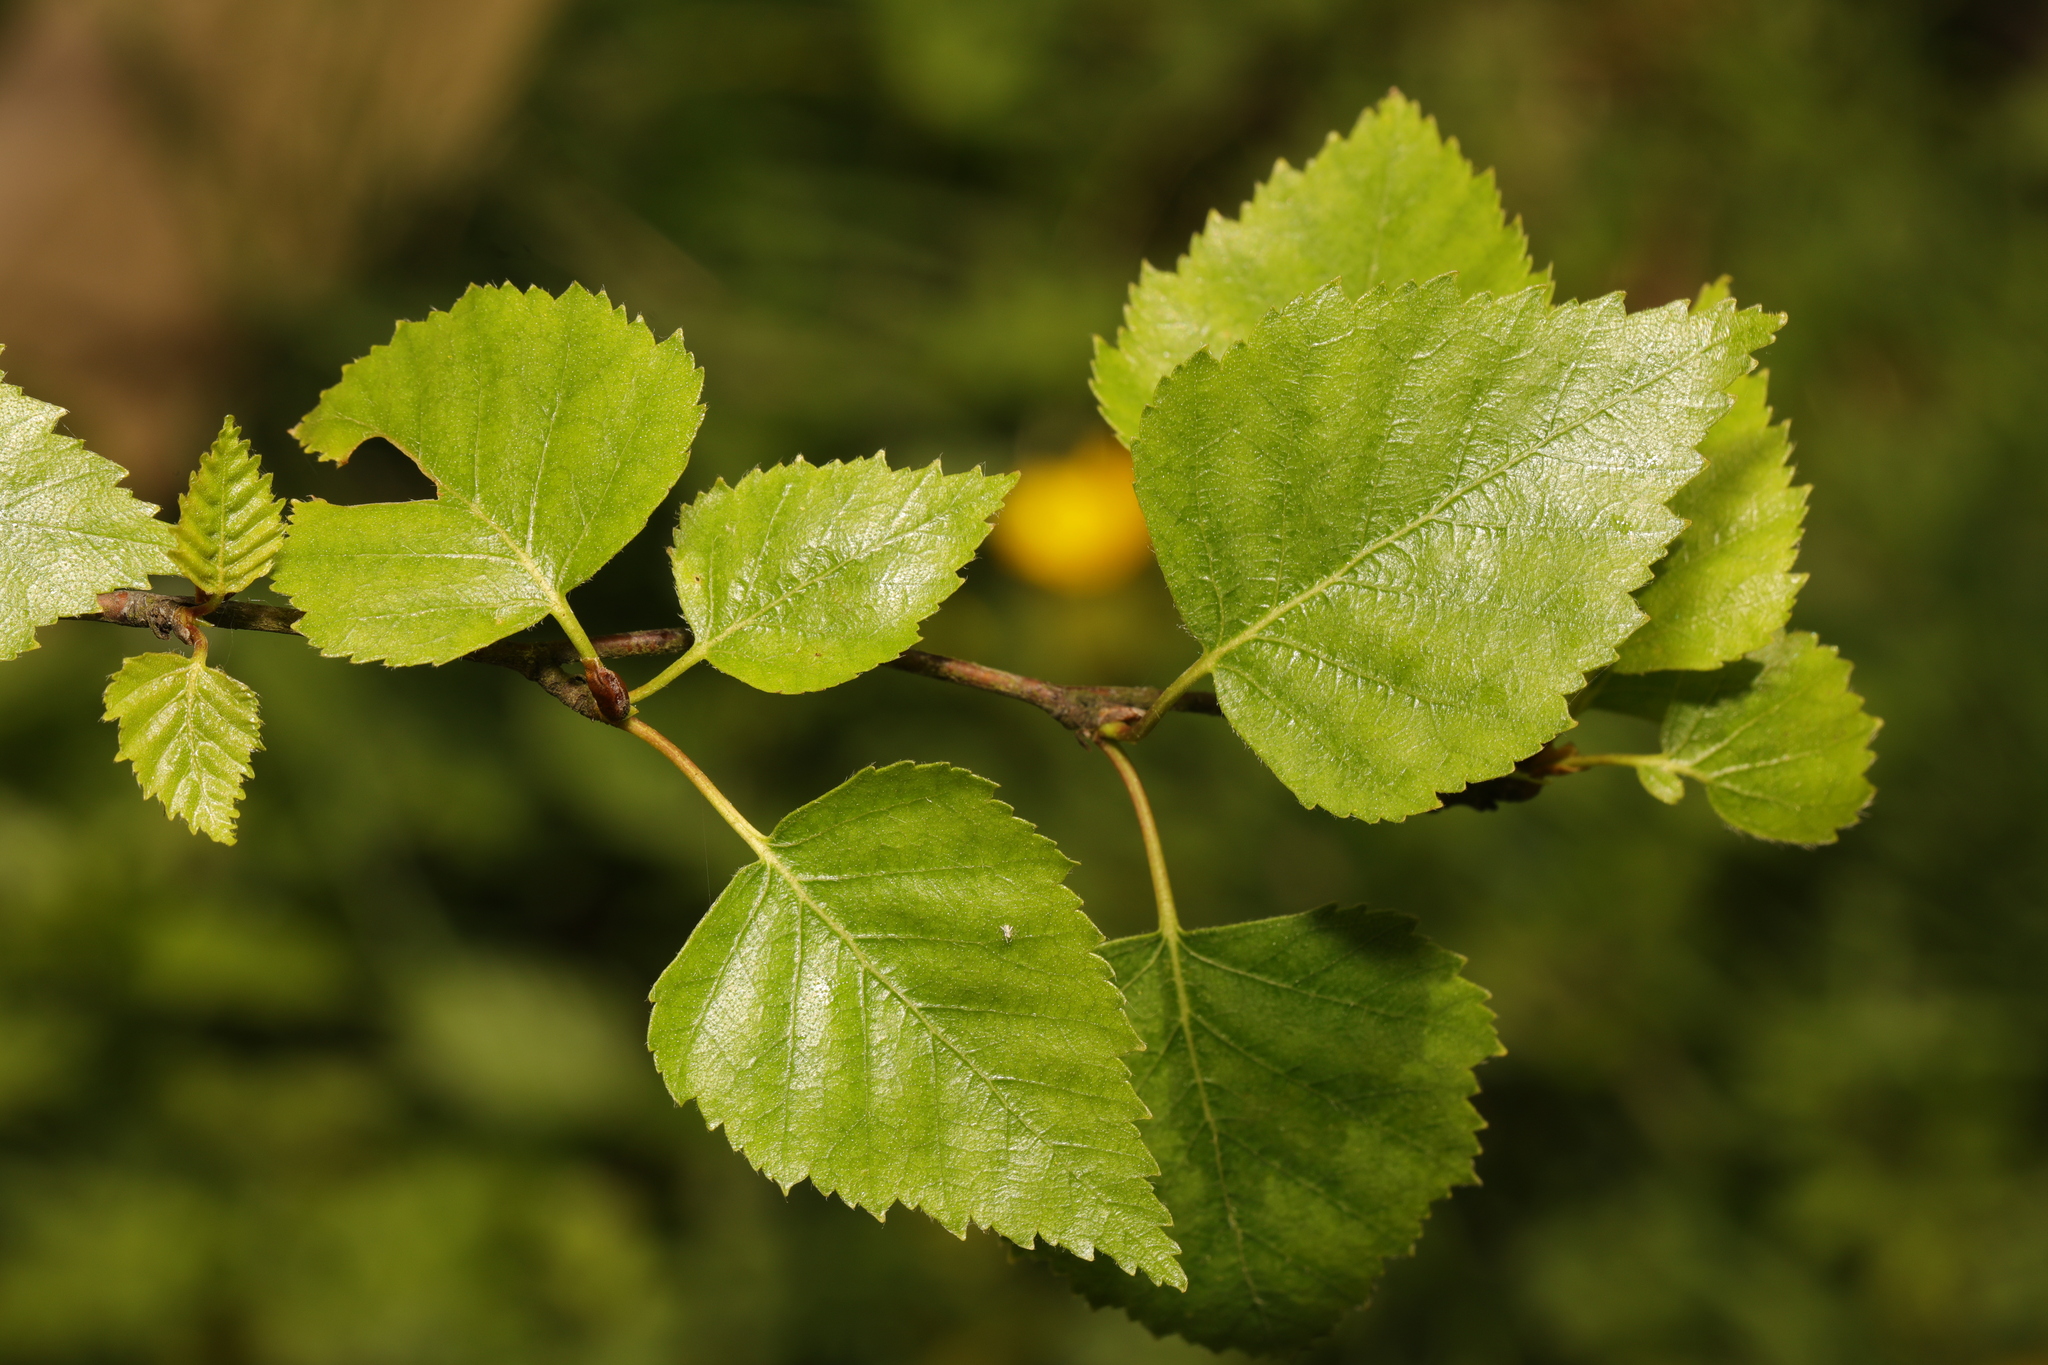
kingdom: Plantae
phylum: Tracheophyta
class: Magnoliopsida
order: Fagales
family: Betulaceae
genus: Betula
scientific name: Betula pendula
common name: Silver birch
